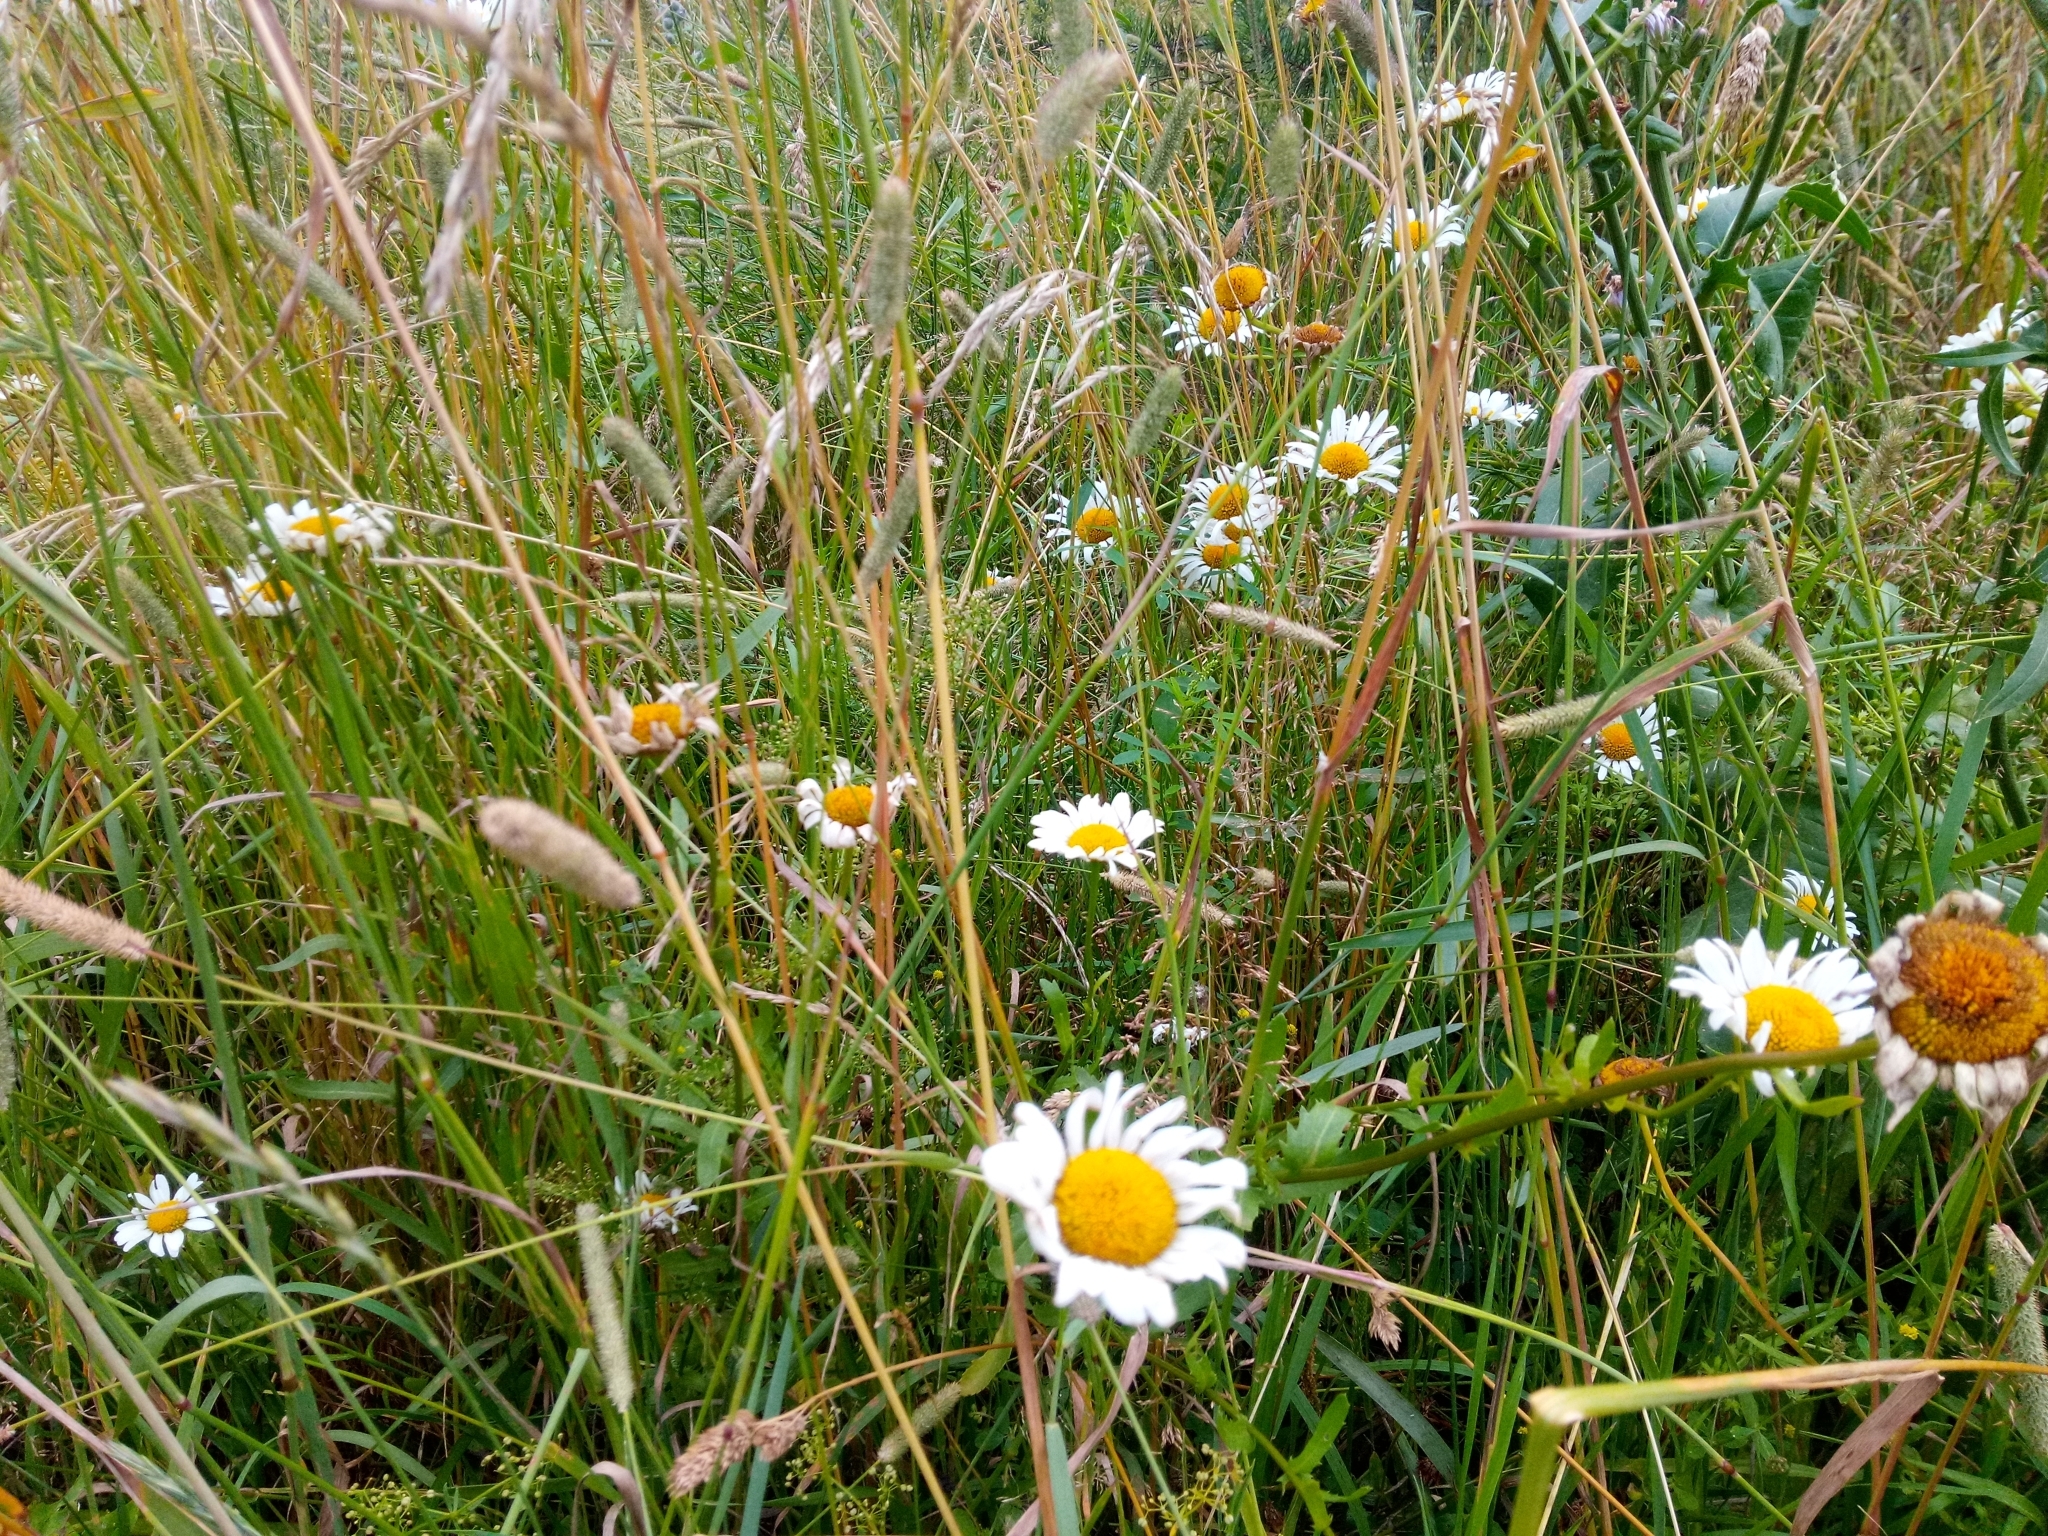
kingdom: Plantae
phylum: Tracheophyta
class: Magnoliopsida
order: Asterales
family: Asteraceae
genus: Leucanthemum
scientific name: Leucanthemum vulgare
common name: Oxeye daisy
